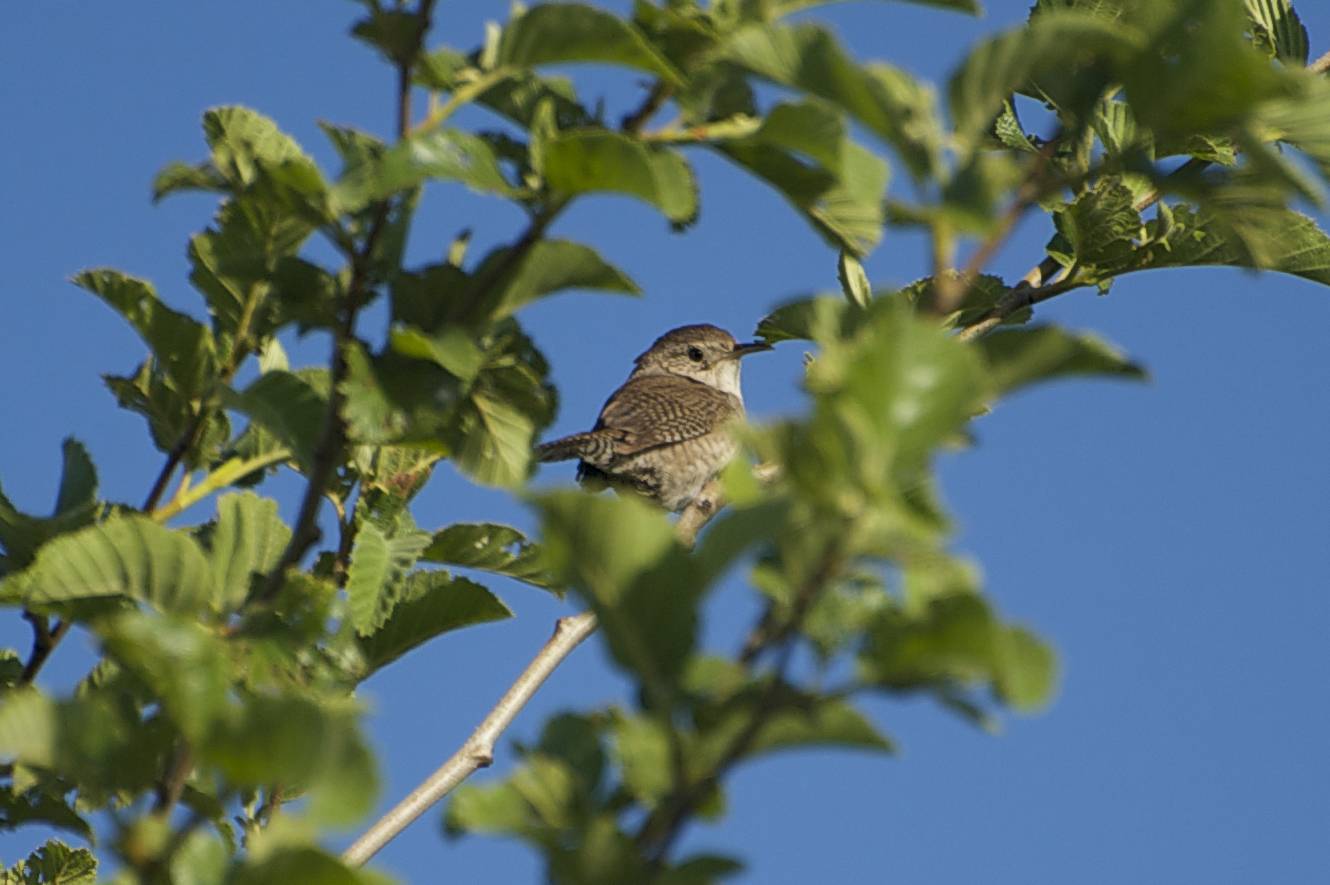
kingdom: Animalia
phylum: Chordata
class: Aves
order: Passeriformes
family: Troglodytidae
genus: Troglodytes
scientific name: Troglodytes aedon
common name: House wren
